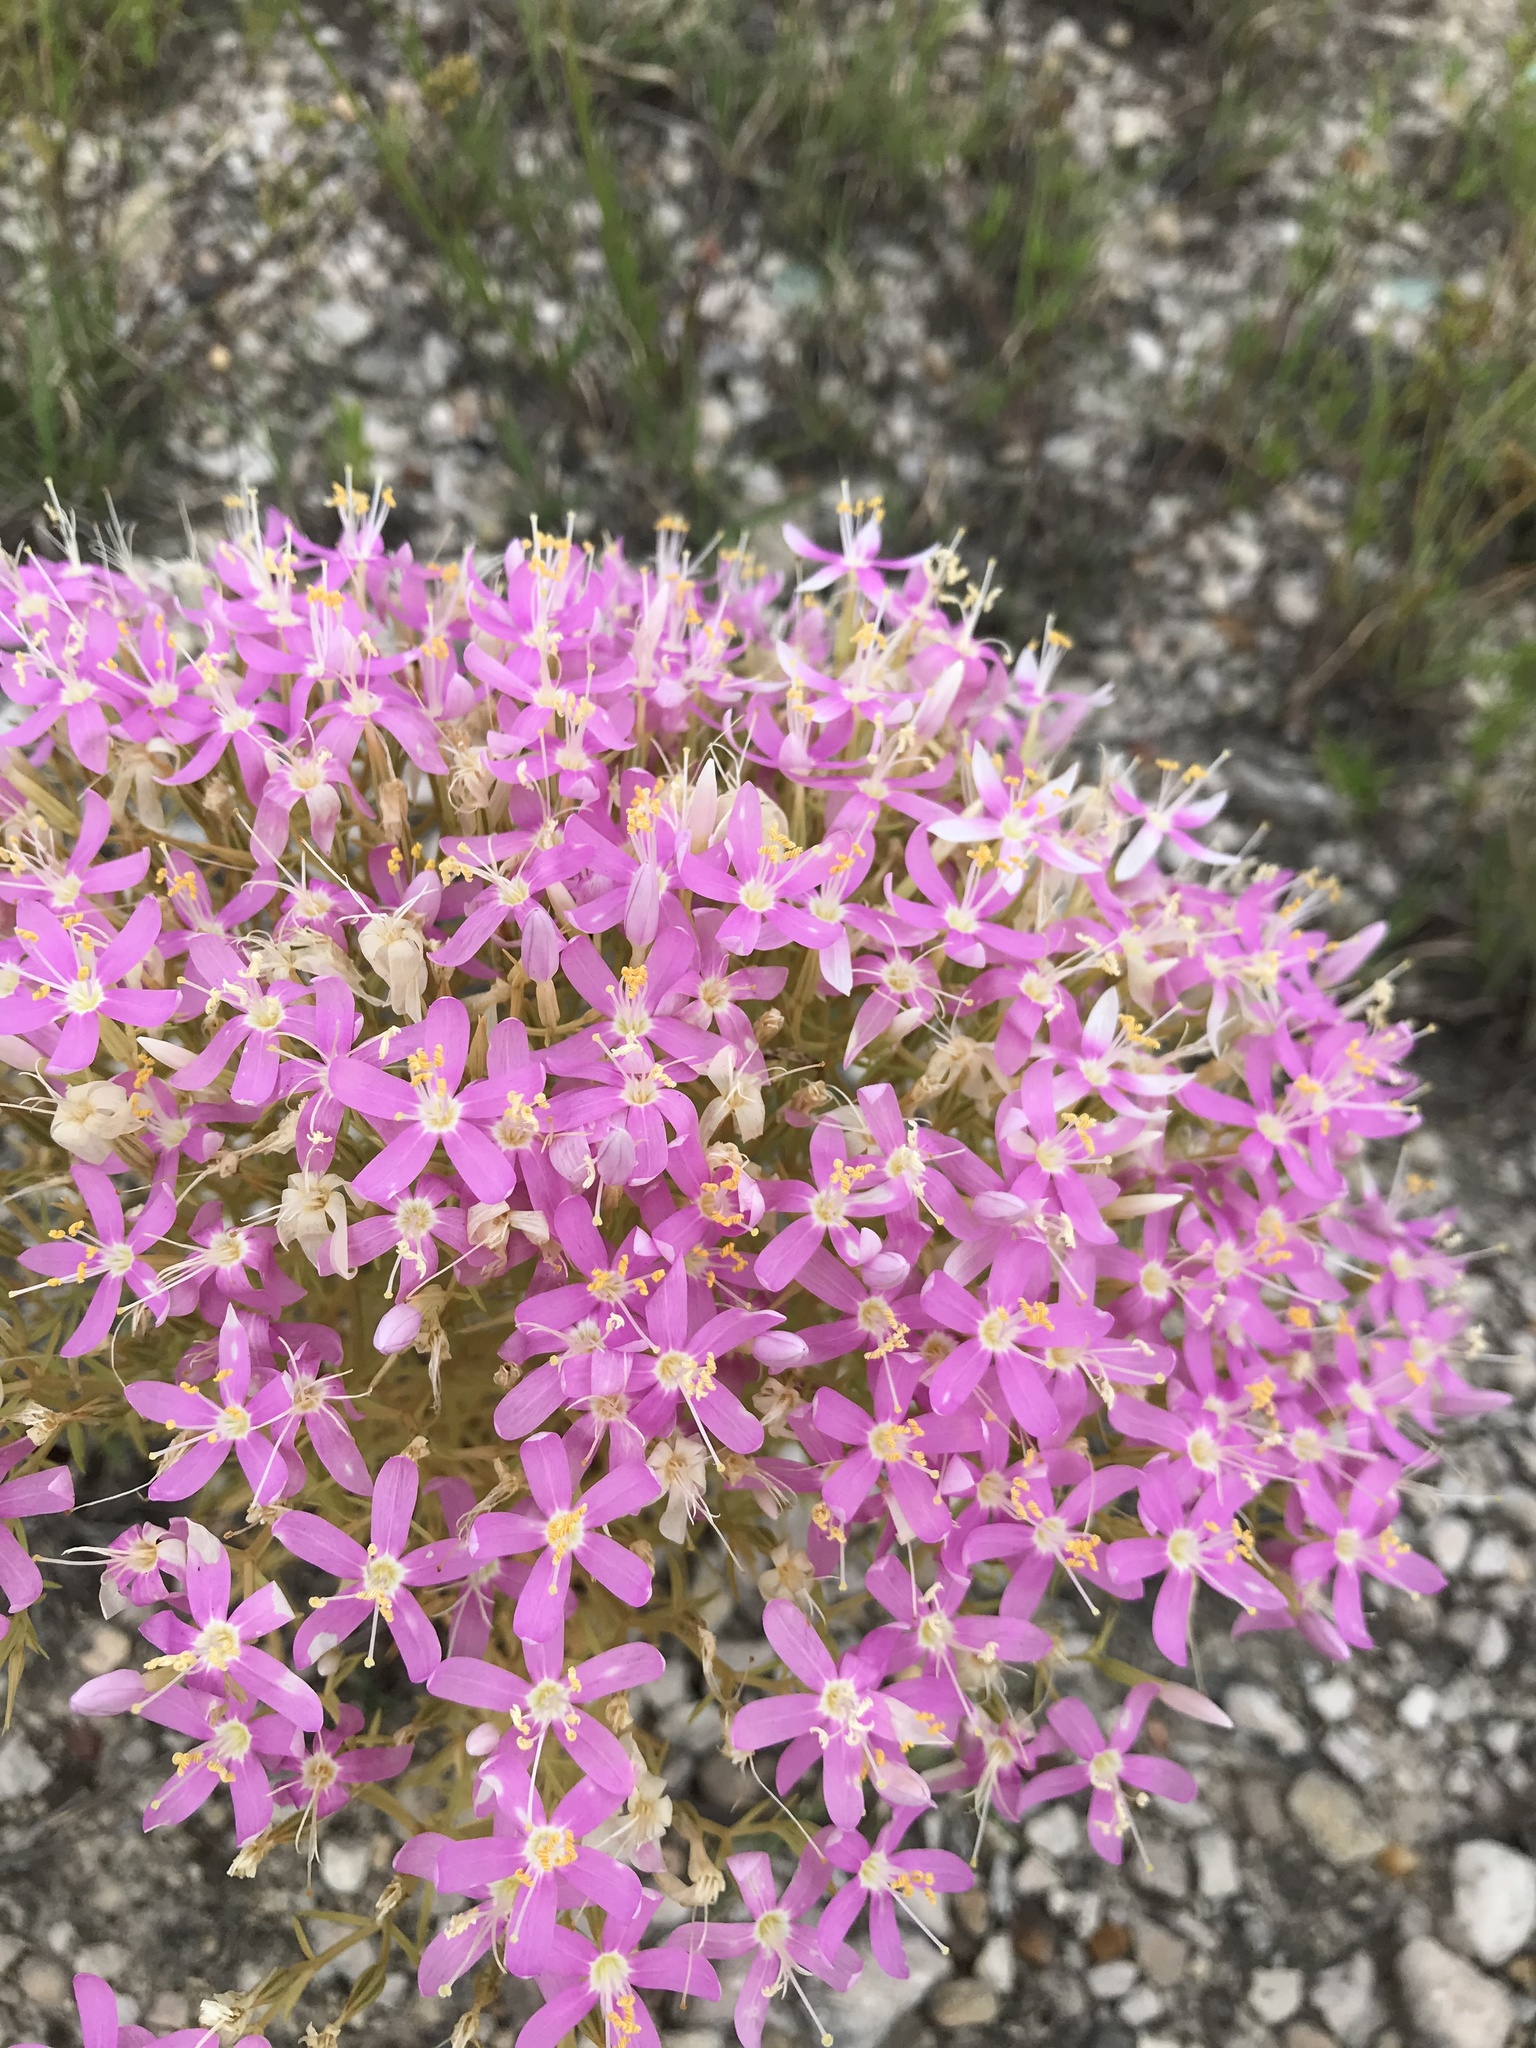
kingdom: Plantae
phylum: Tracheophyta
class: Magnoliopsida
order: Gentianales
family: Gentianaceae
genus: Zeltnera
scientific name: Zeltnera beyrichii
